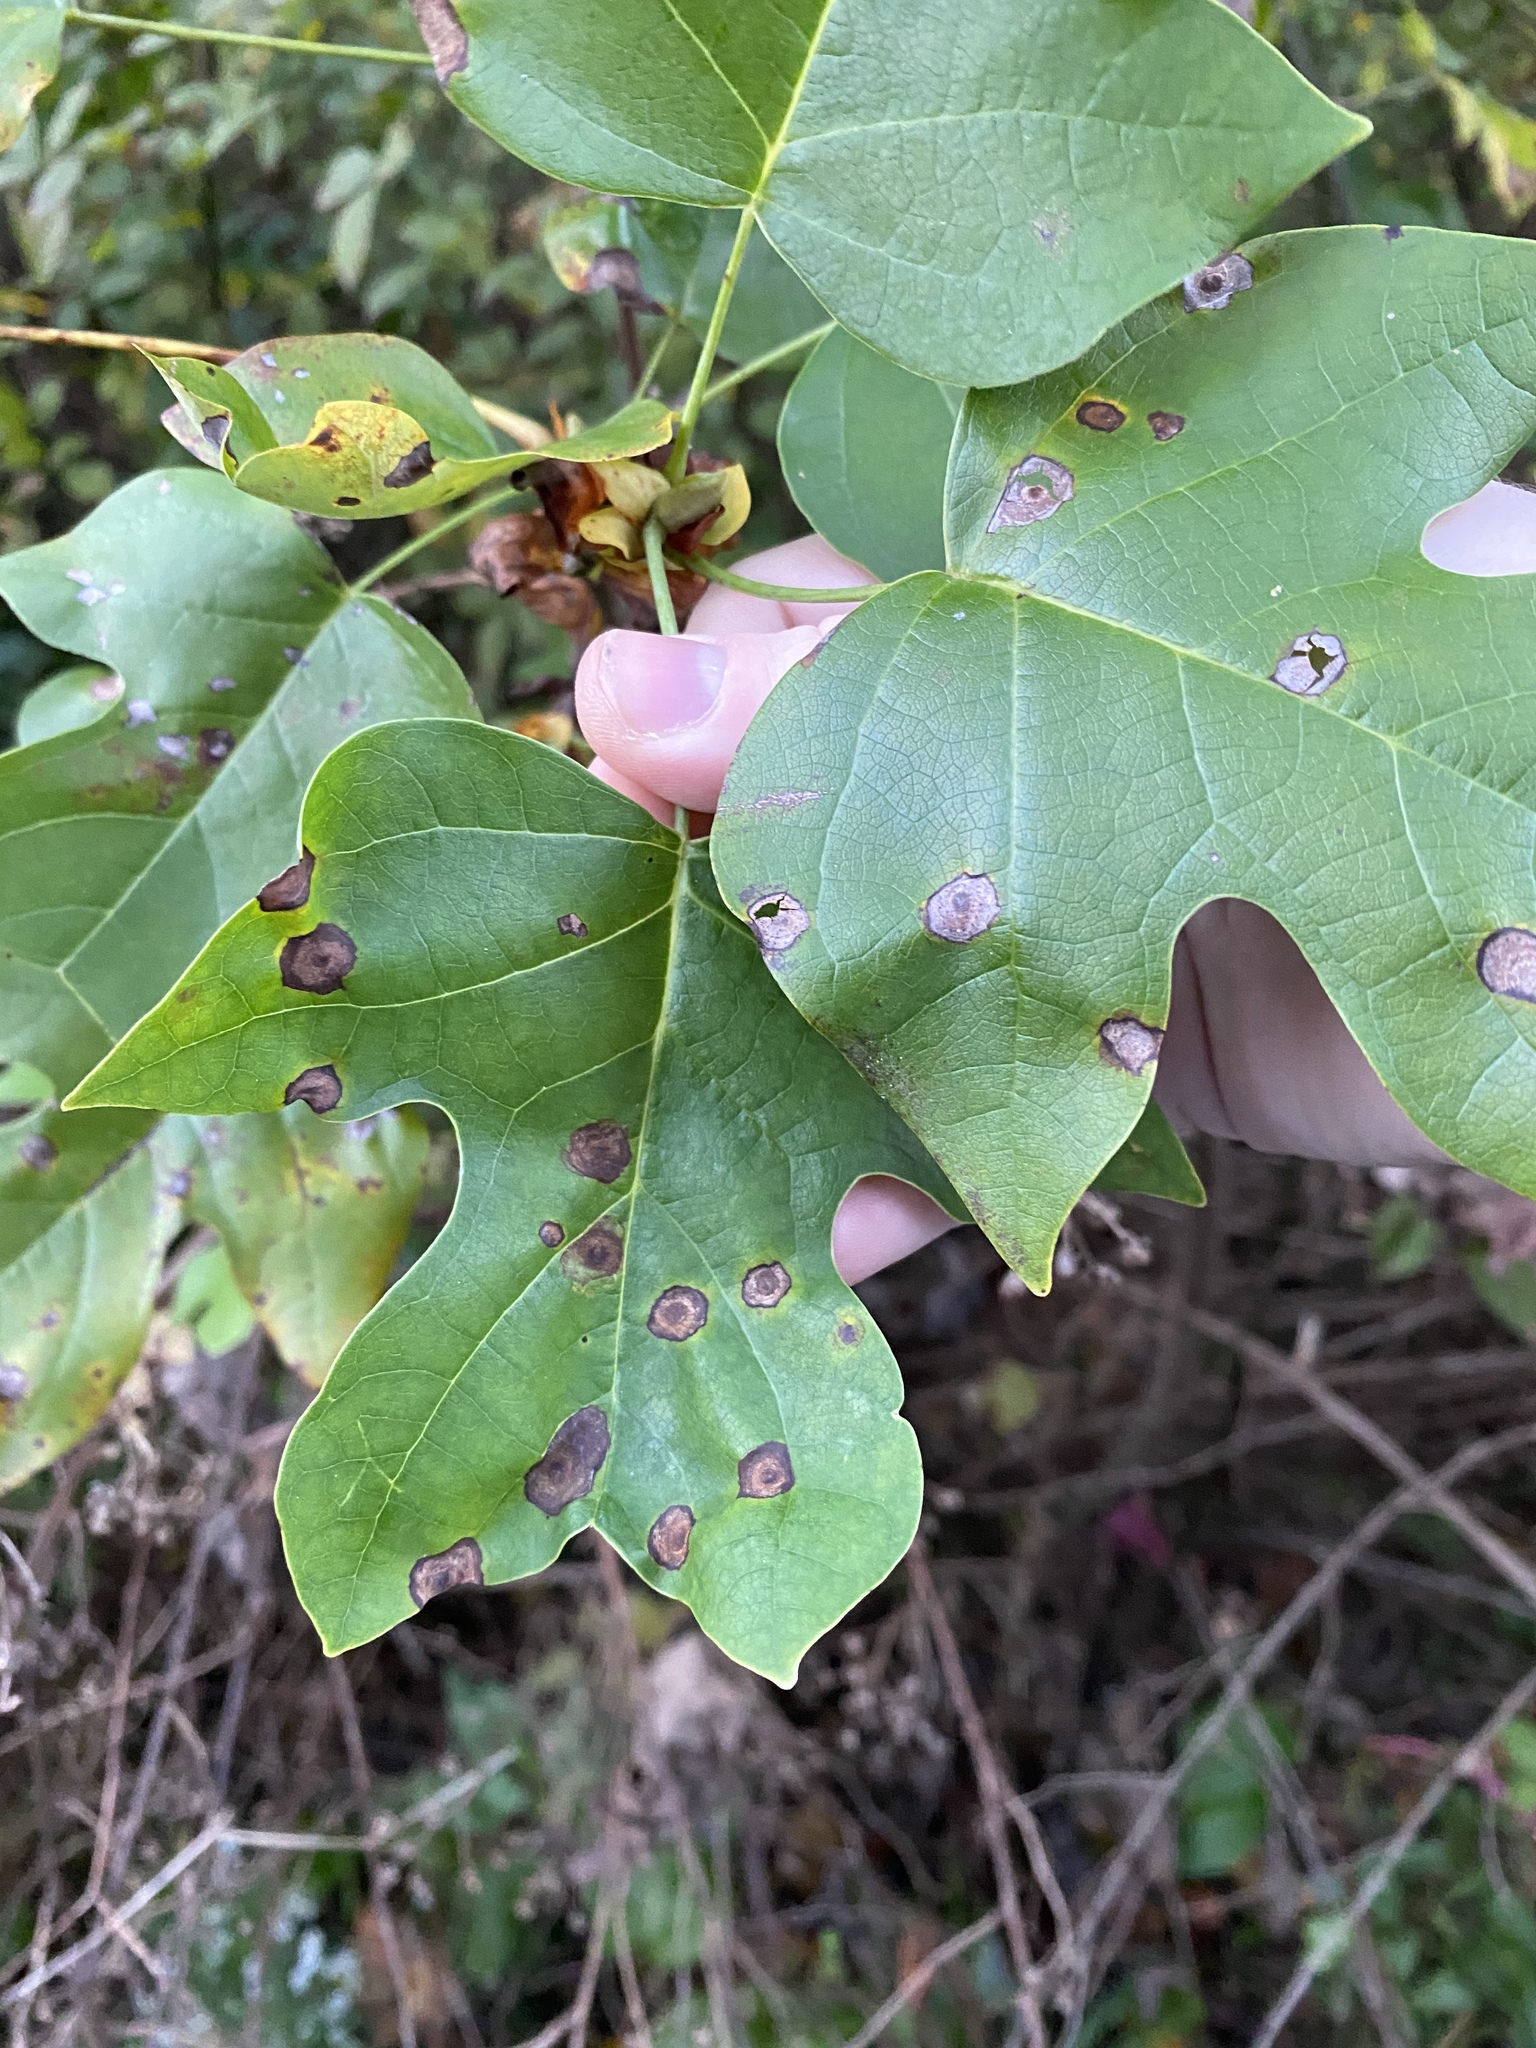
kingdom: Plantae
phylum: Tracheophyta
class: Magnoliopsida
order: Magnoliales
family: Magnoliaceae
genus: Liriodendron
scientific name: Liriodendron tulipifera
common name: Tulip tree
